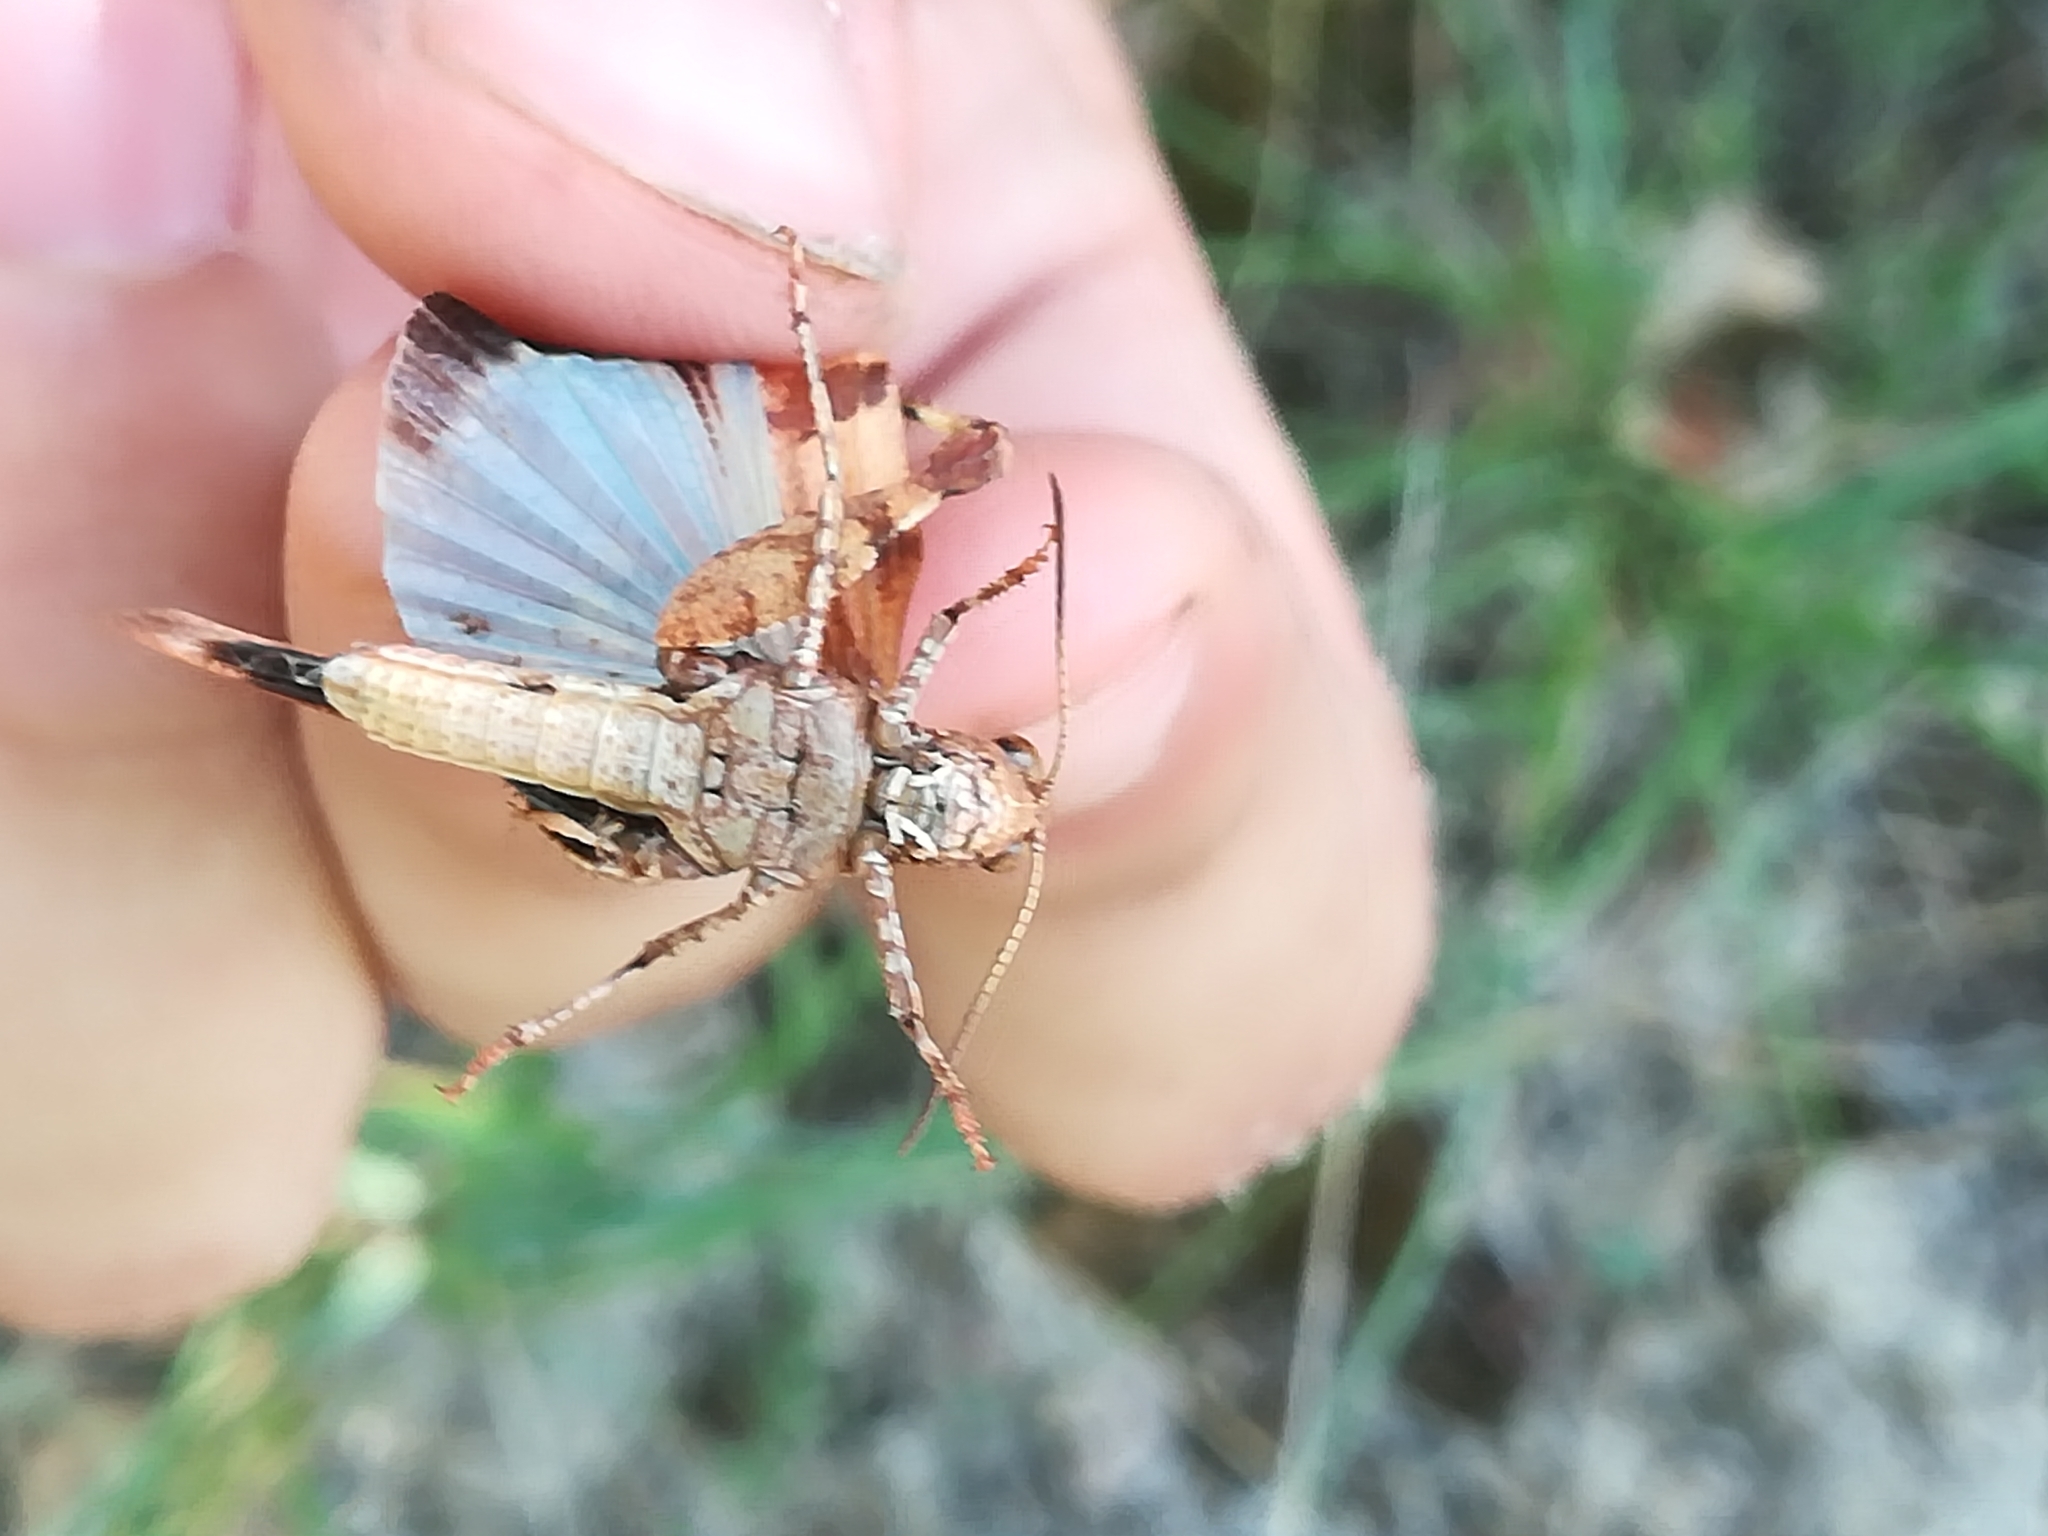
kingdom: Animalia
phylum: Arthropoda
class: Insecta
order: Orthoptera
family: Acrididae
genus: Oedipoda
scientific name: Oedipoda caerulescens
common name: Blue-winged grasshopper
